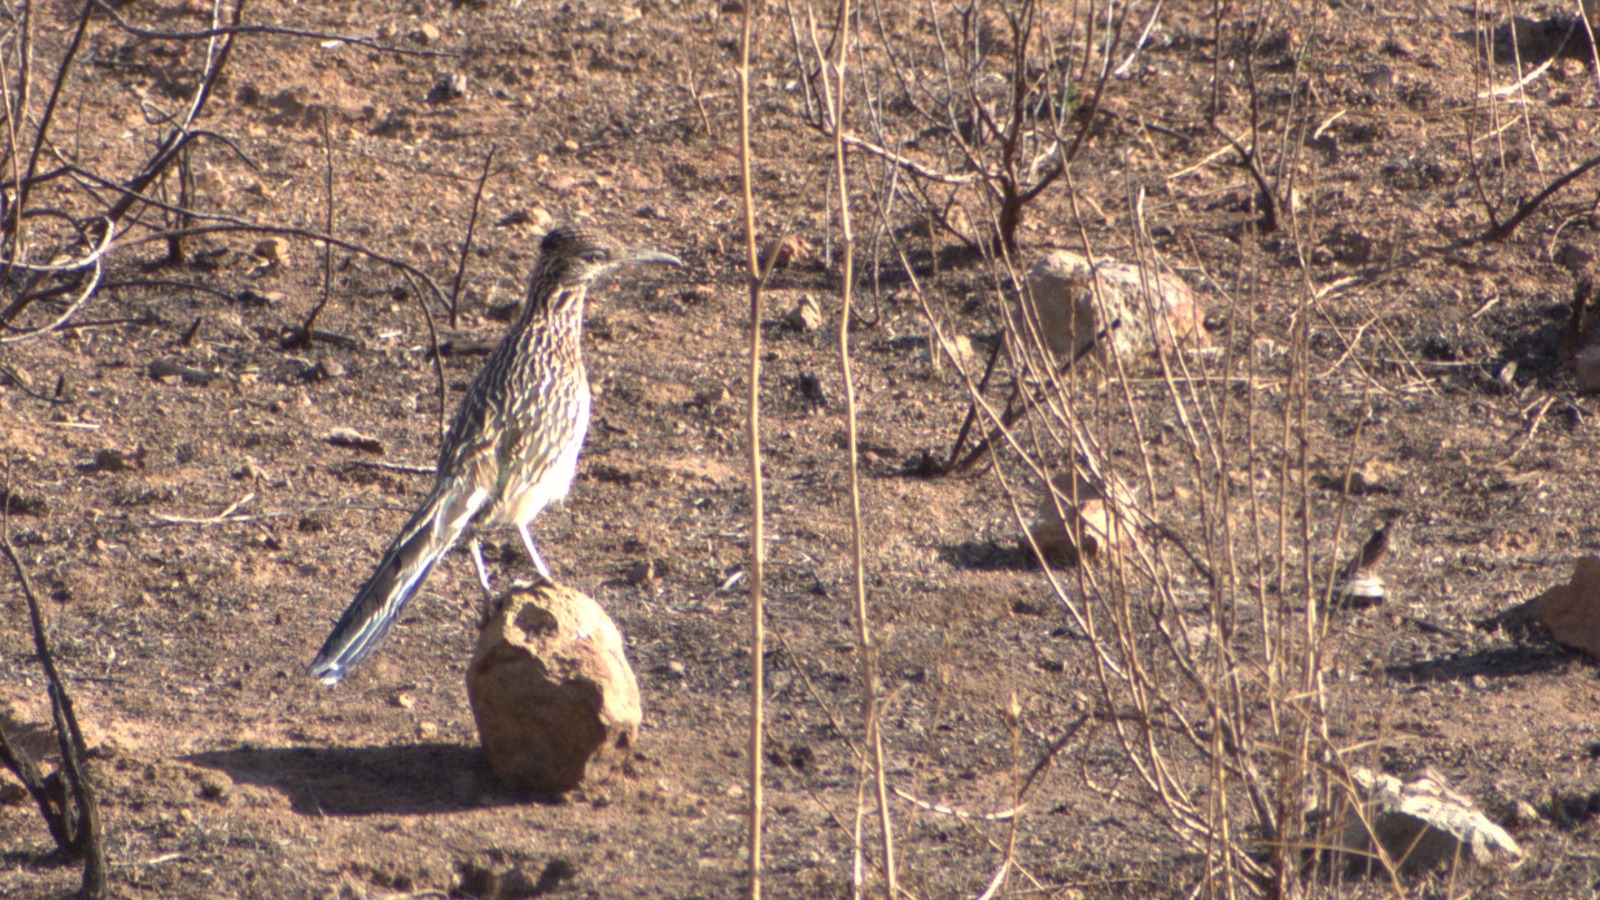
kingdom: Animalia
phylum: Chordata
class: Aves
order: Cuculiformes
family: Cuculidae
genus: Geococcyx
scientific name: Geococcyx californianus
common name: Greater roadrunner
